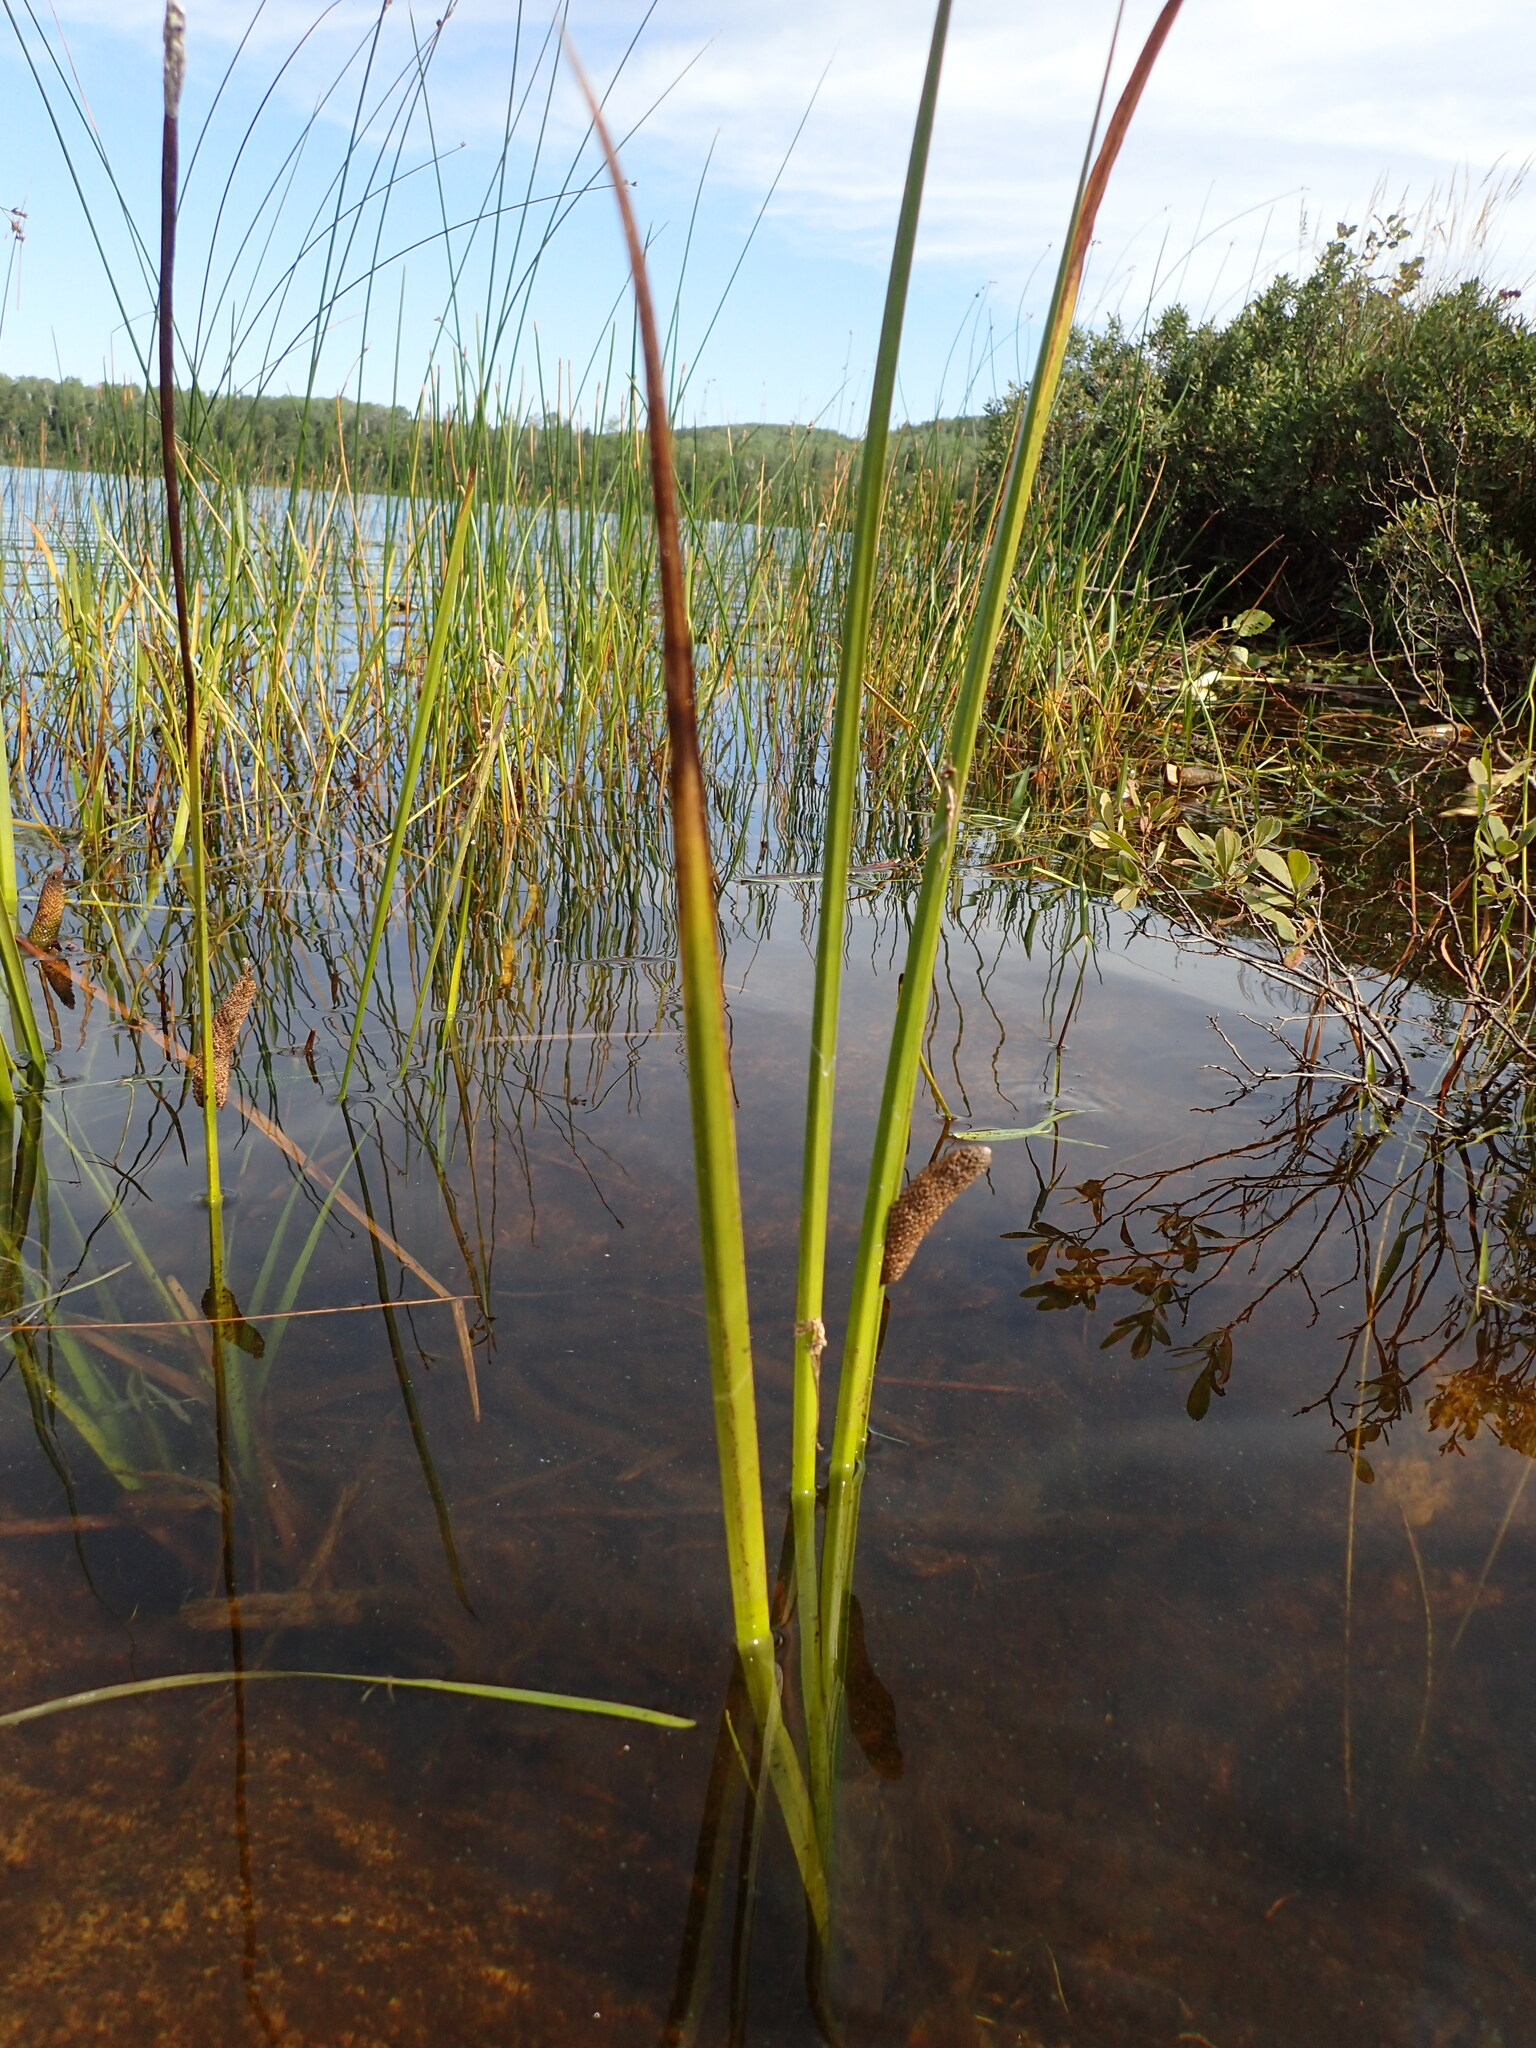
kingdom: Plantae
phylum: Tracheophyta
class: Liliopsida
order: Acorales
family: Acoraceae
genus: Acorus
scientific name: Acorus calamus
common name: Sweet-flag
